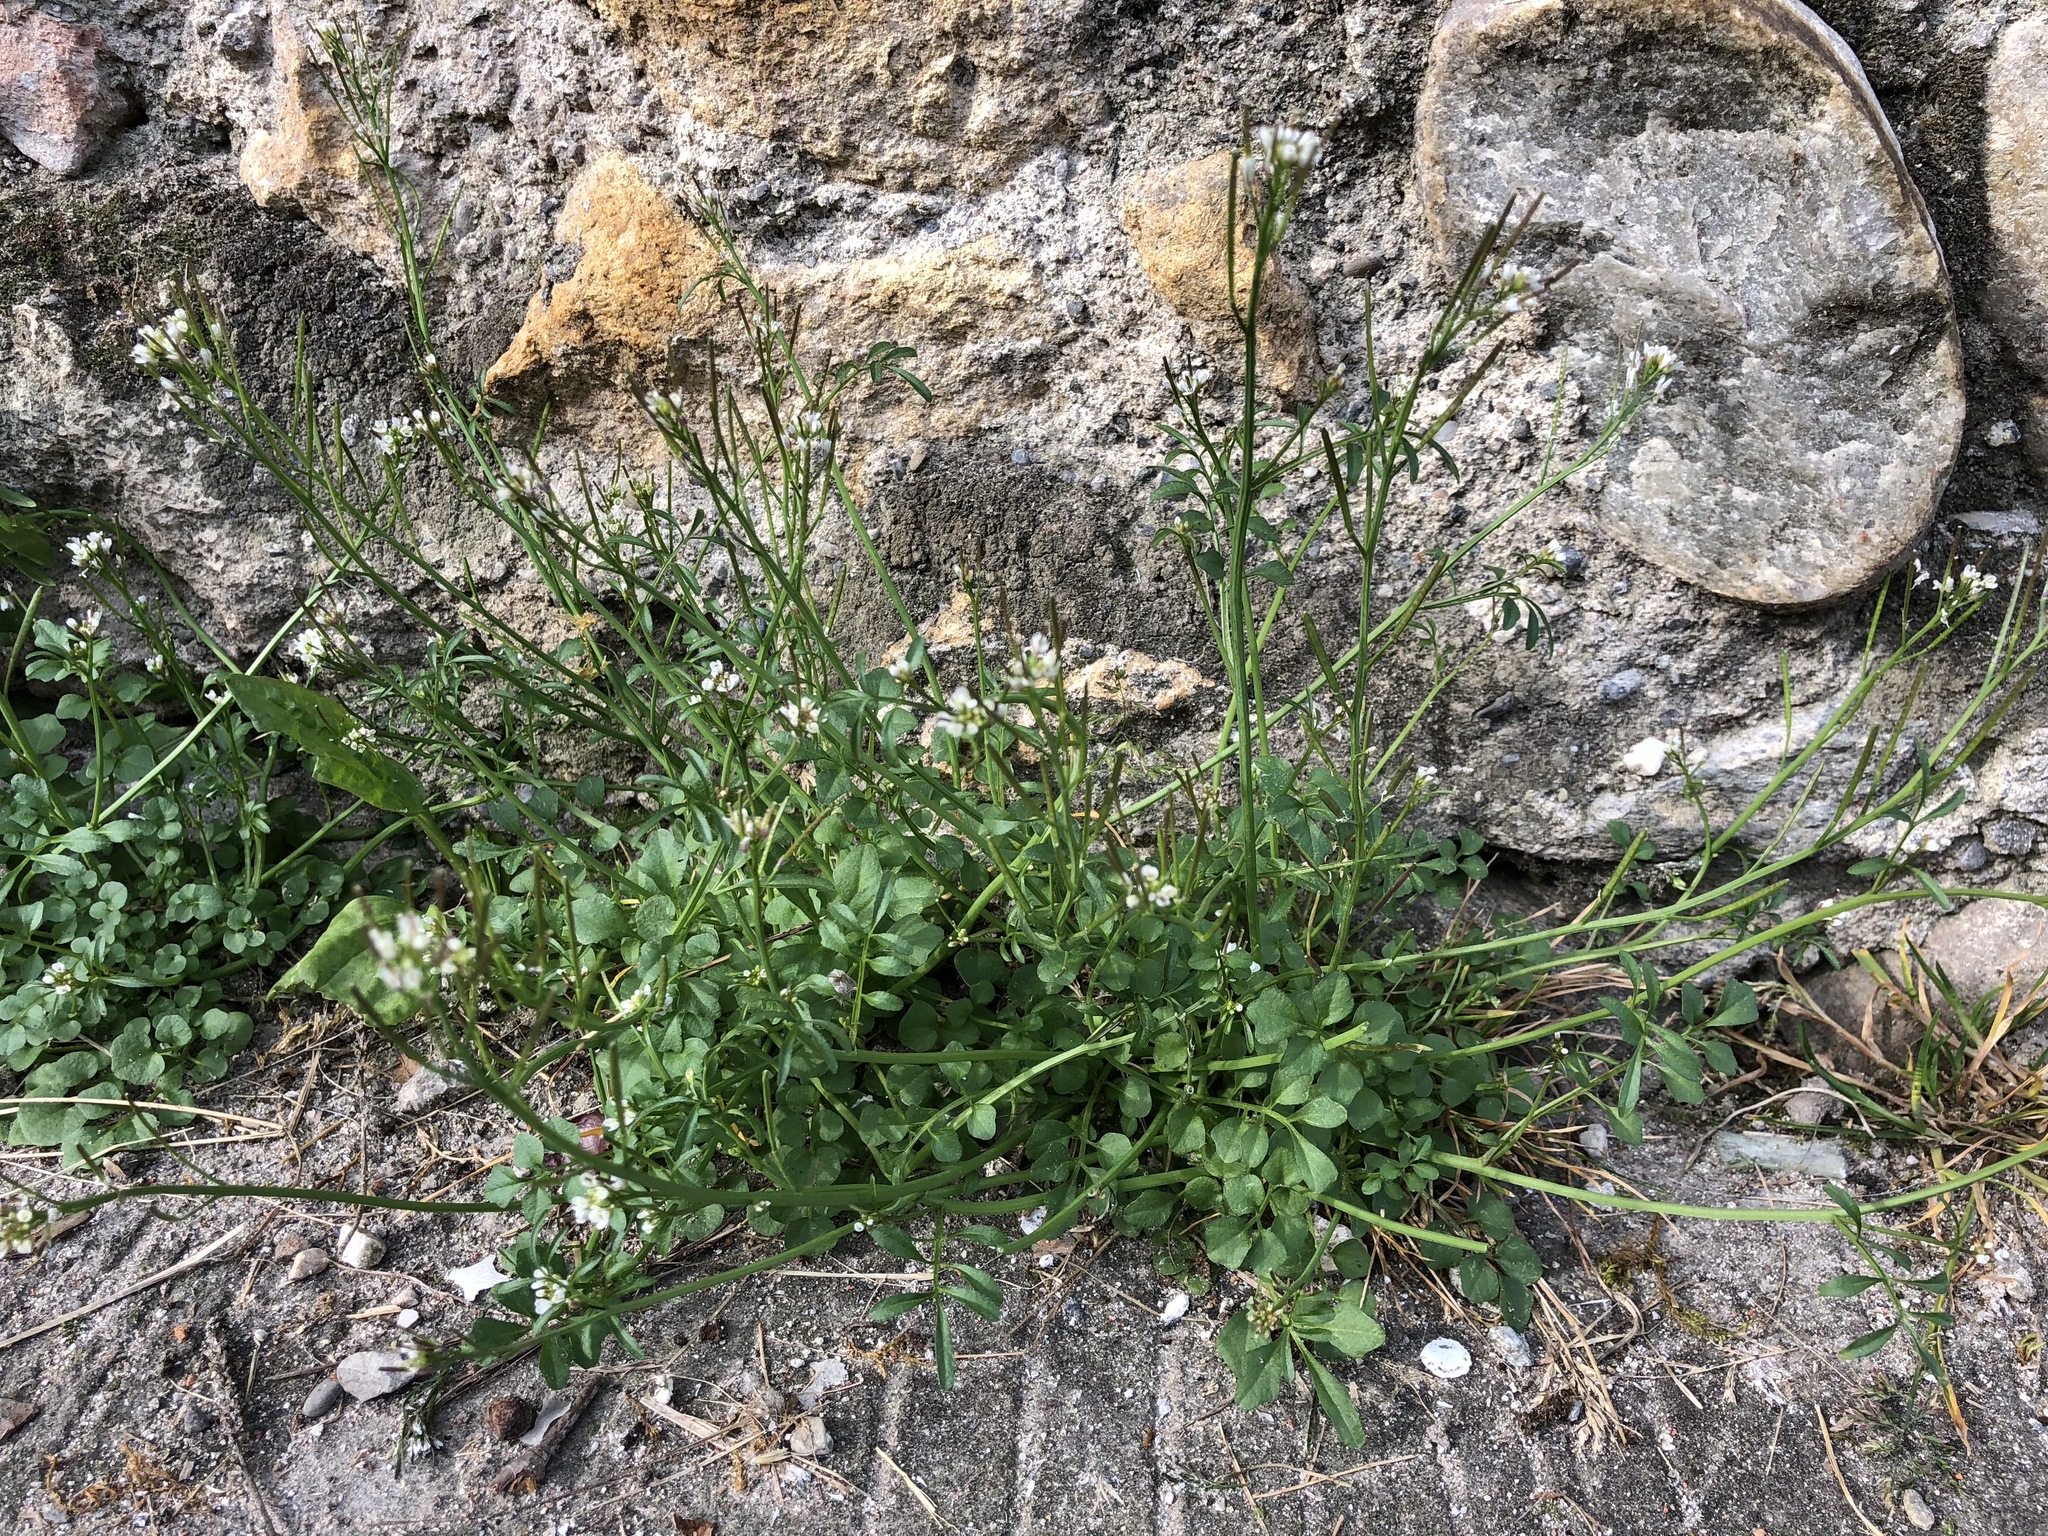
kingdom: Plantae
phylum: Tracheophyta
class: Magnoliopsida
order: Brassicales
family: Brassicaceae
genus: Cardamine
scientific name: Cardamine hirsuta
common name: Hairy bittercress
